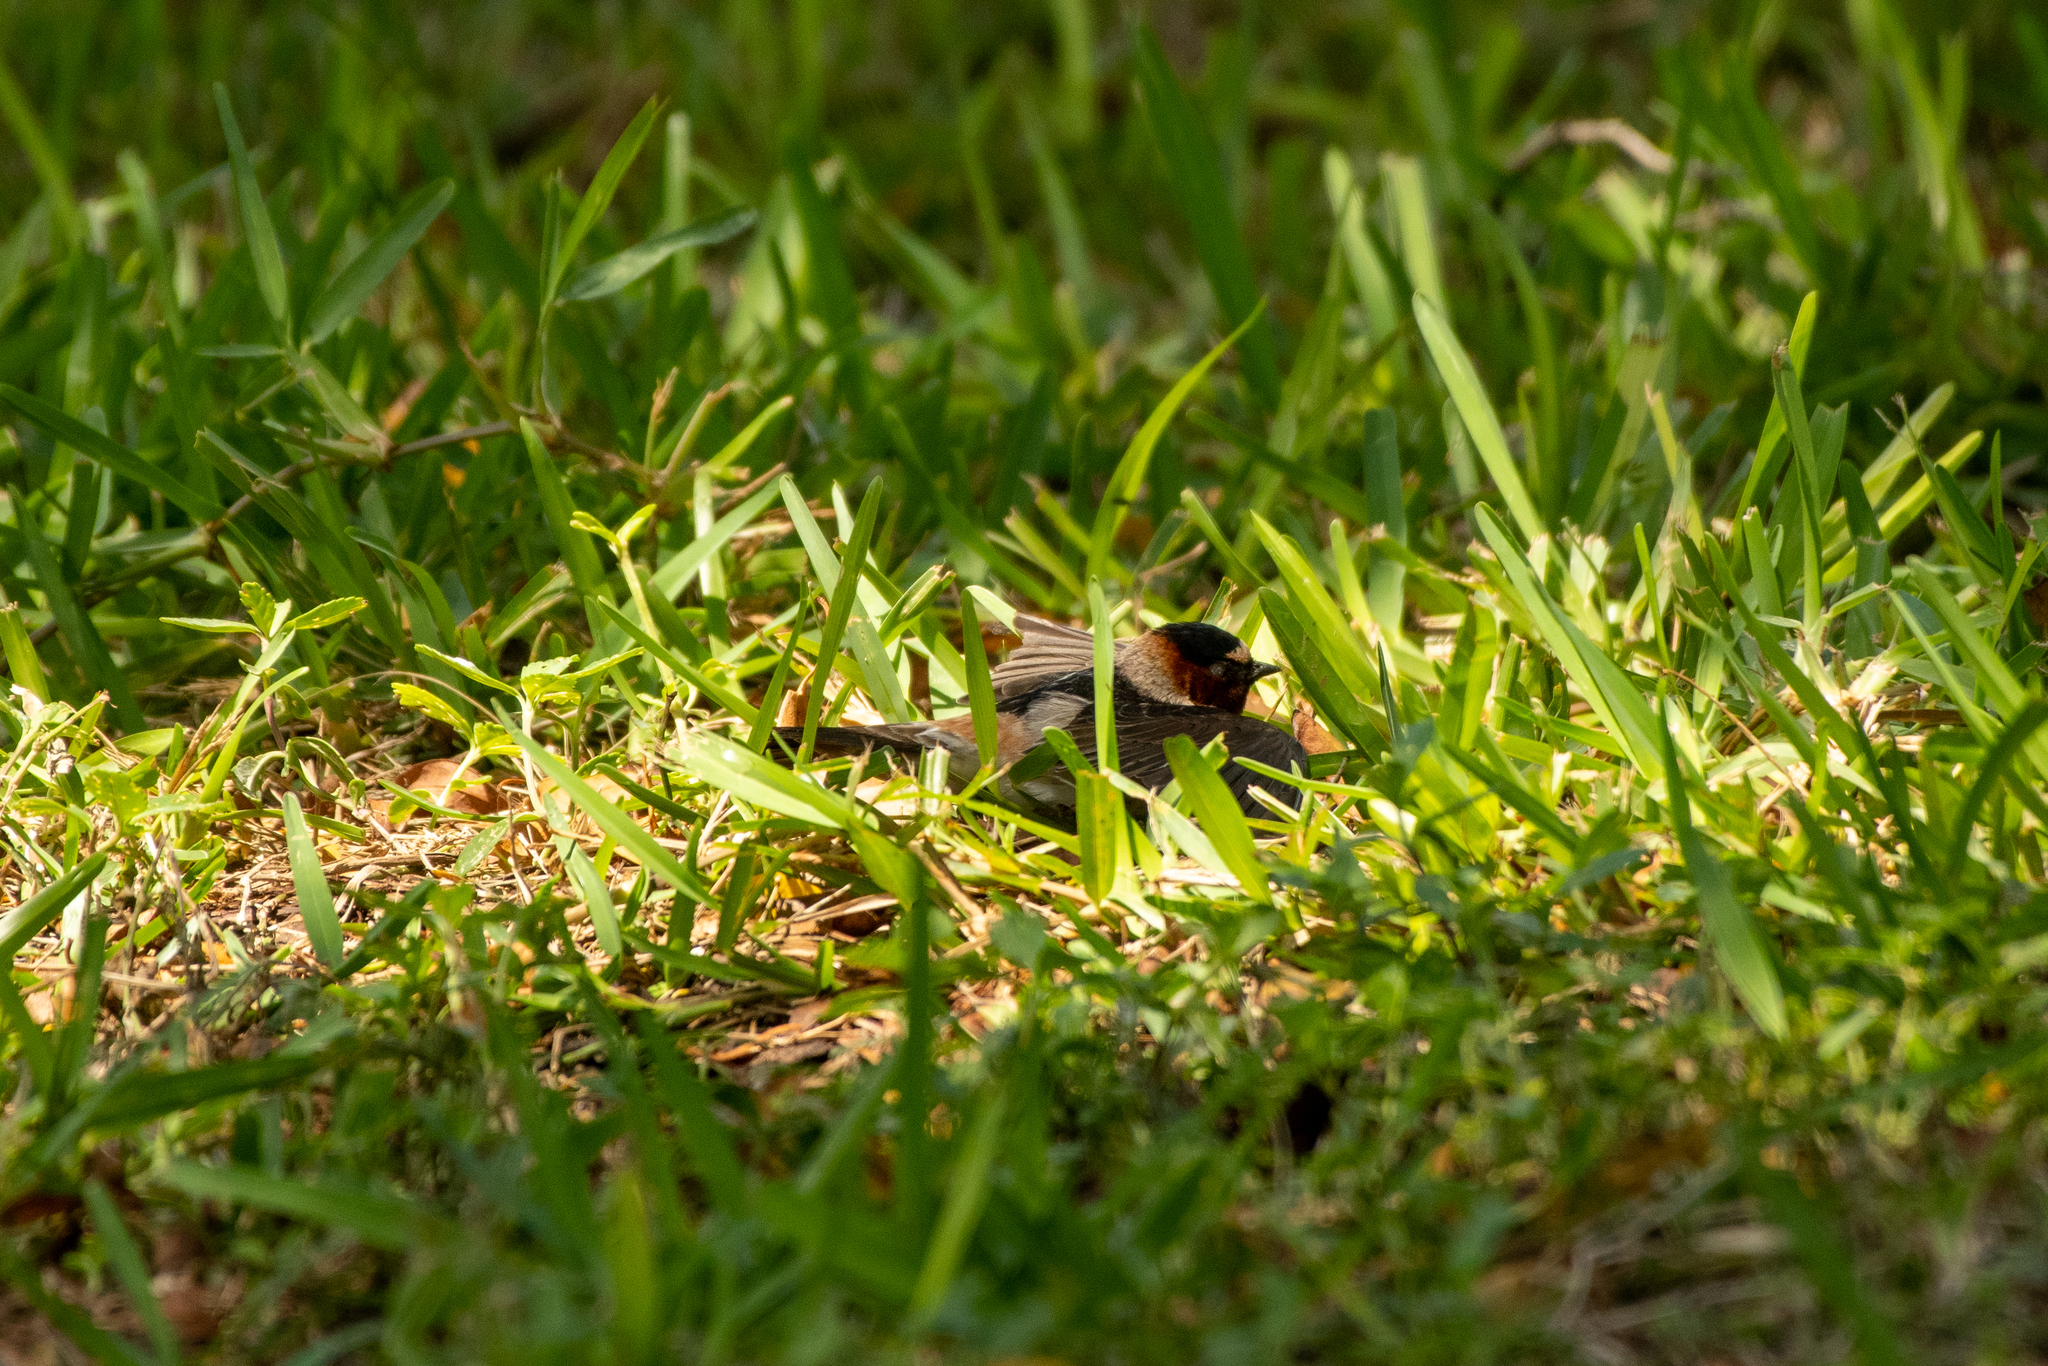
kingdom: Animalia
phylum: Chordata
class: Aves
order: Passeriformes
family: Hirundinidae
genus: Petrochelidon
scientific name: Petrochelidon pyrrhonota
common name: American cliff swallow
